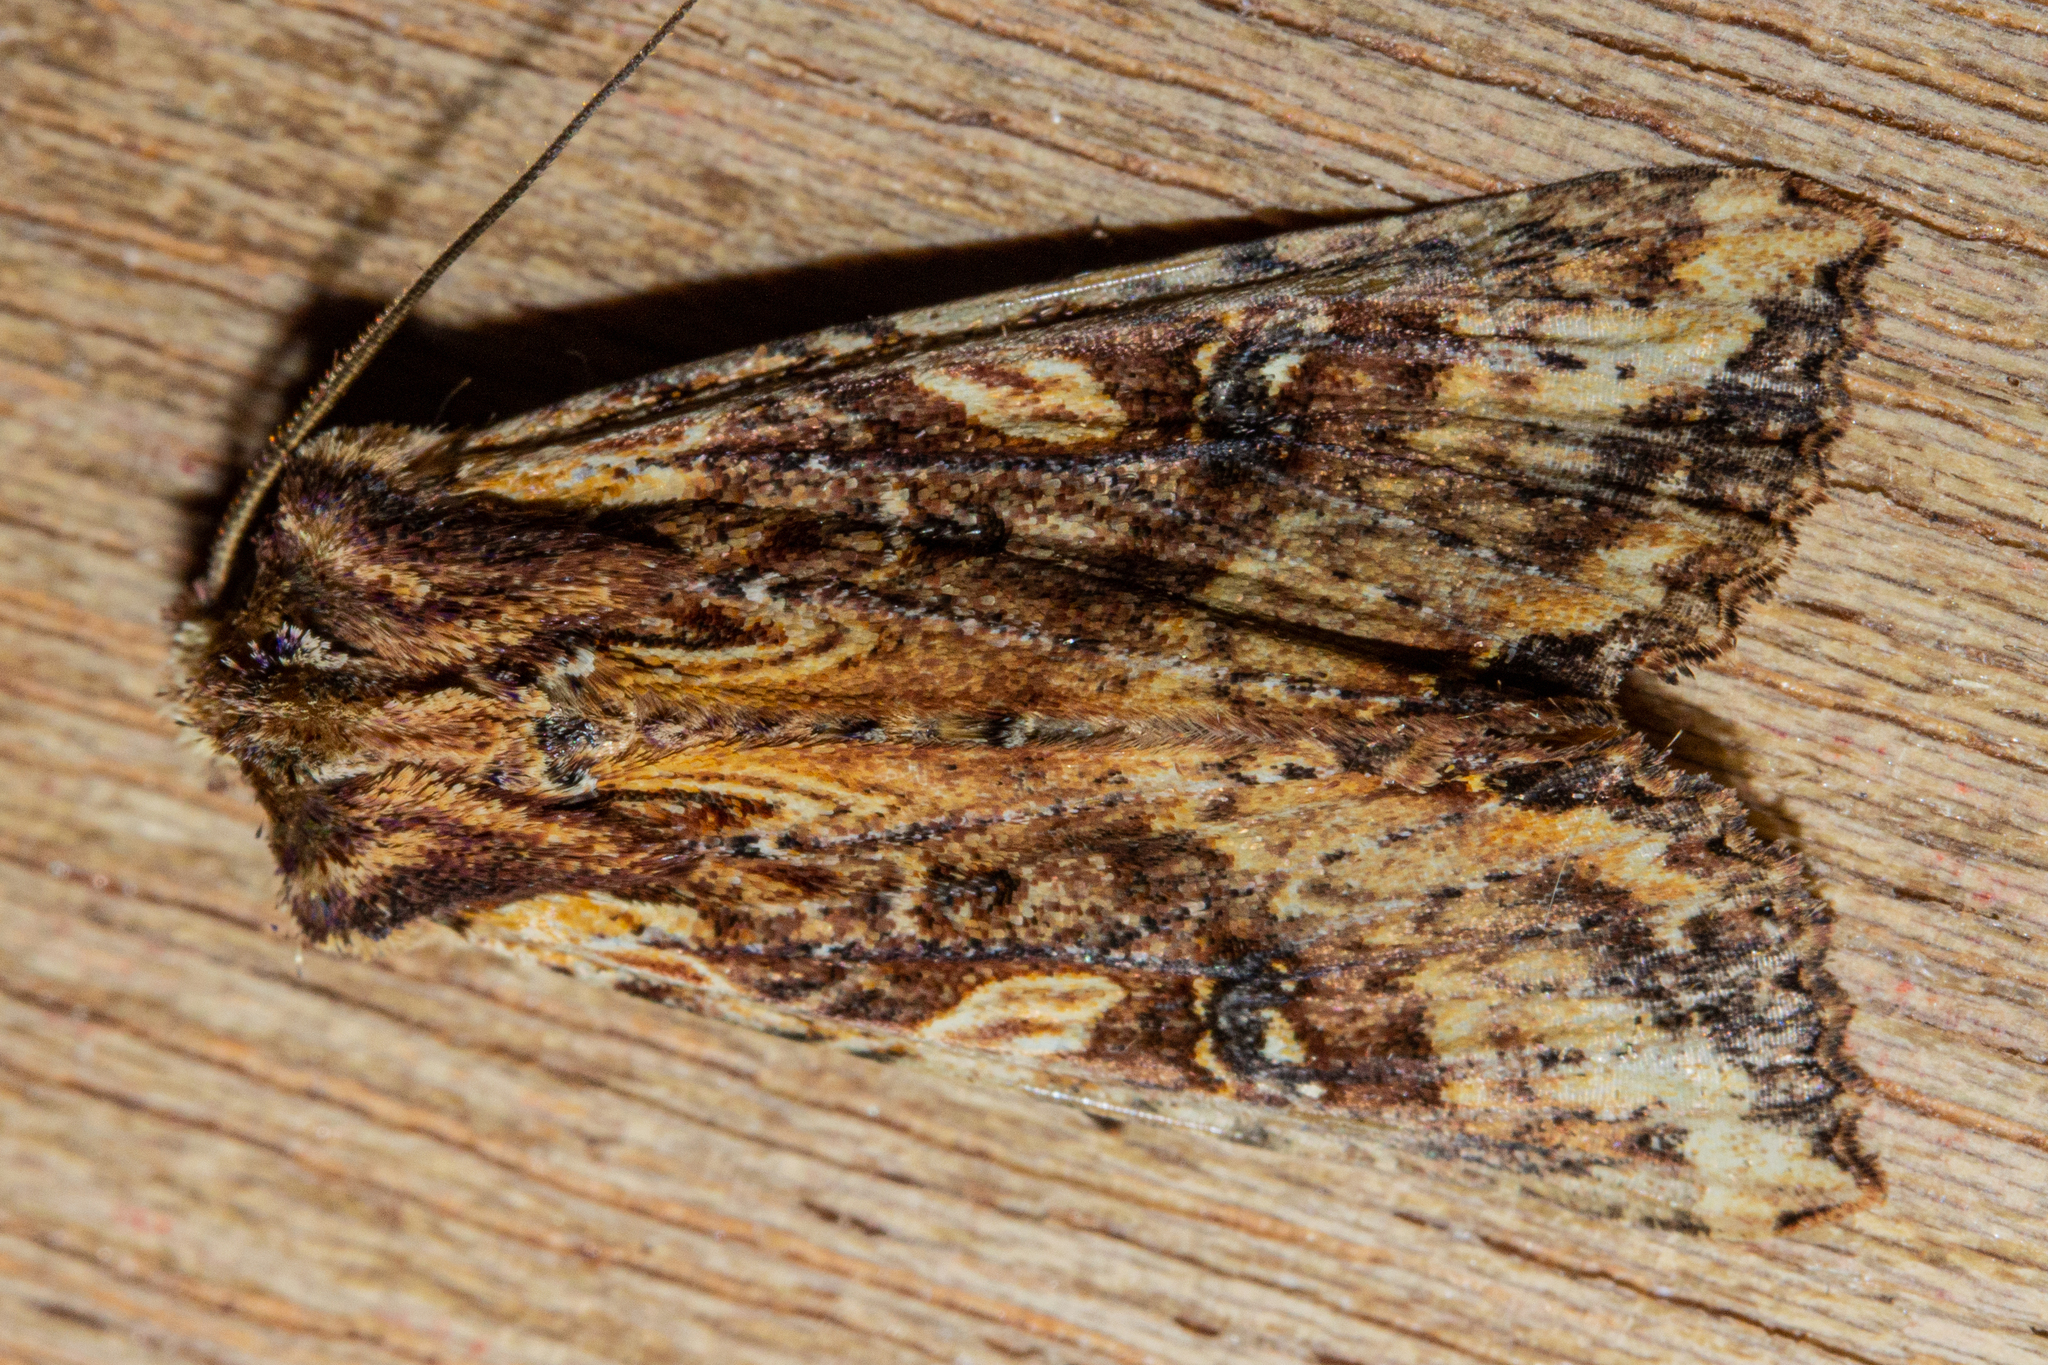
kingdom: Animalia
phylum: Arthropoda
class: Insecta
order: Lepidoptera
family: Noctuidae
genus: Meterana
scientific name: Meterana stipata
